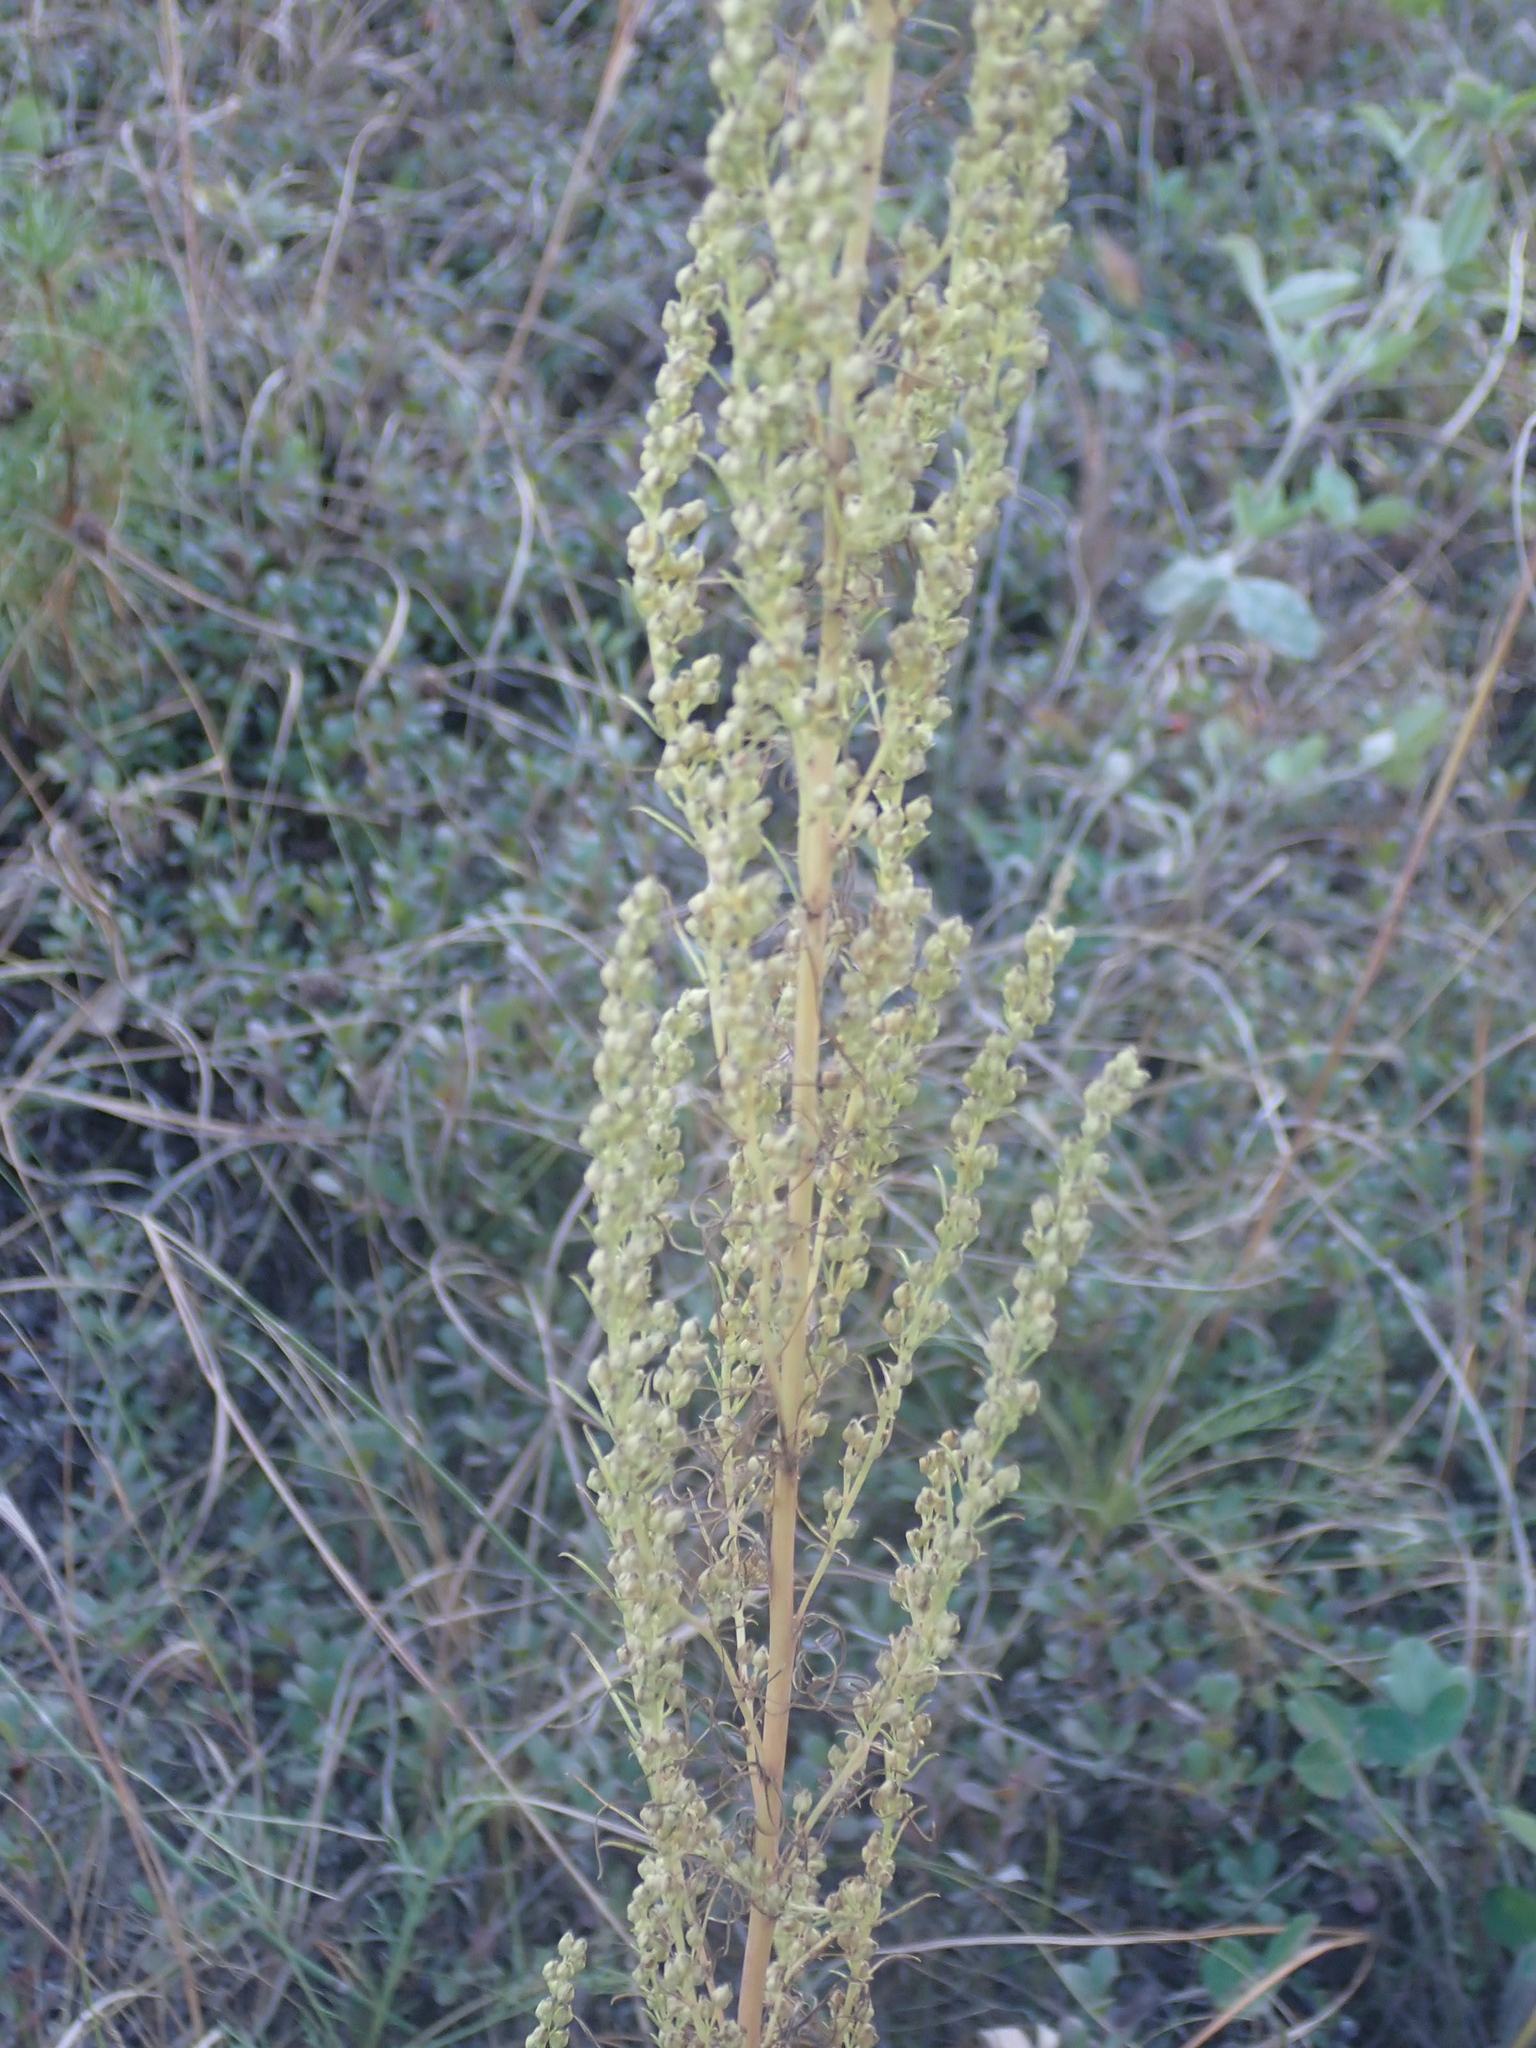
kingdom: Plantae
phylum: Tracheophyta
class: Magnoliopsida
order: Asterales
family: Asteraceae
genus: Artemisia
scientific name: Artemisia campestris
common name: Field wormwood
